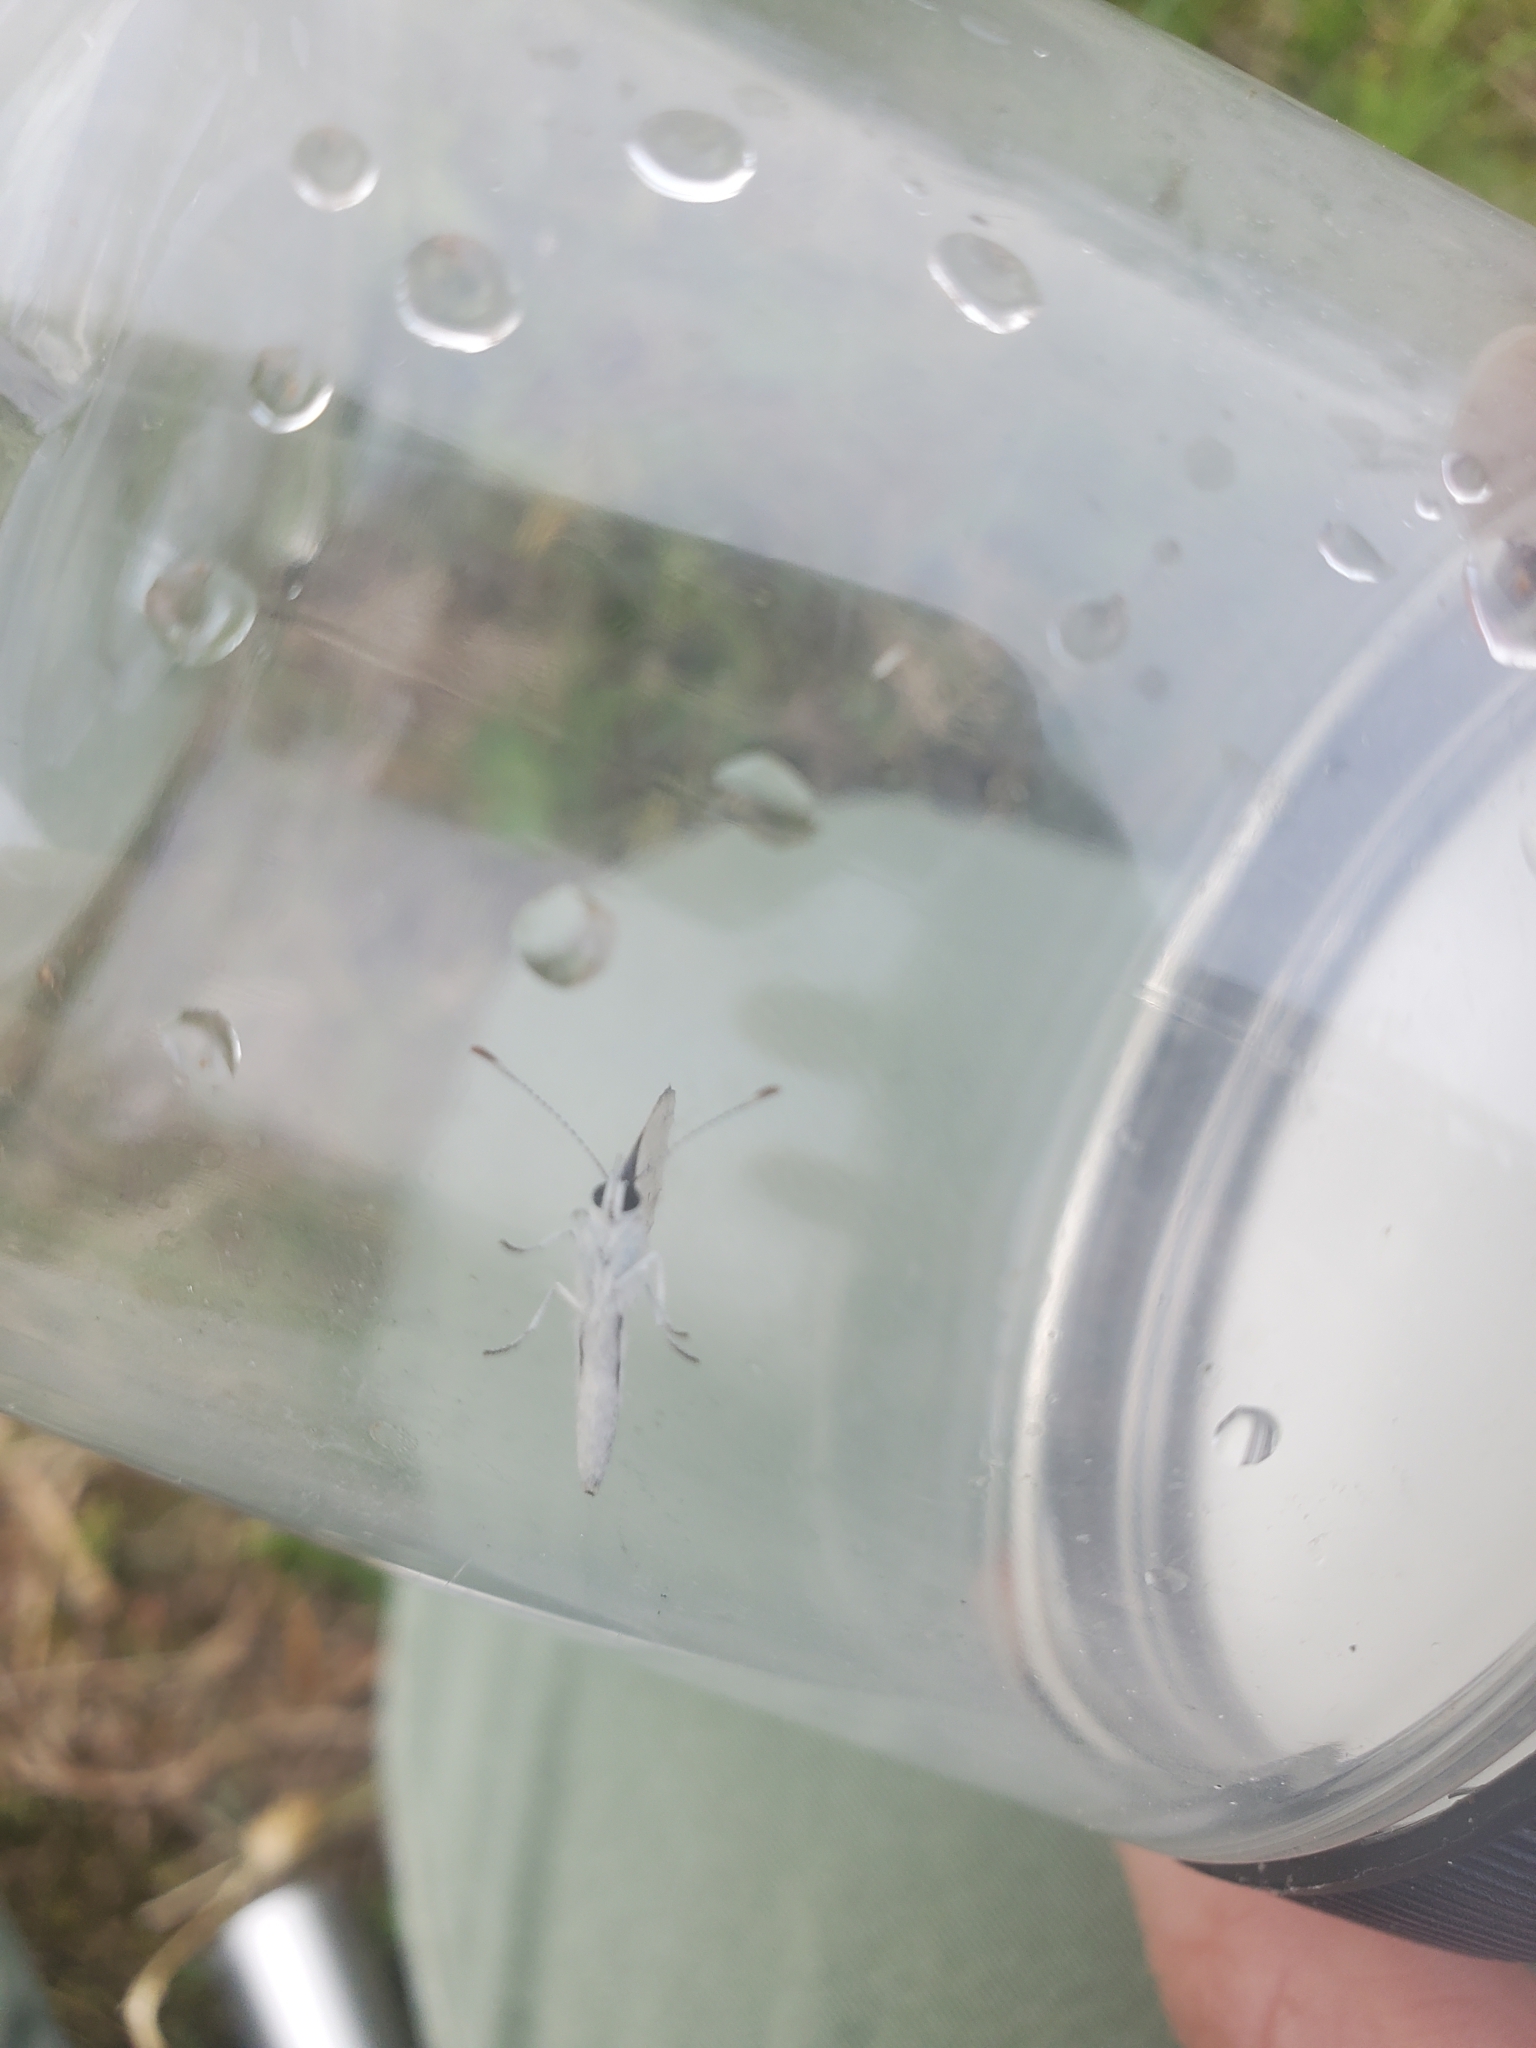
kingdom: Animalia
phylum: Arthropoda
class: Insecta
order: Lepidoptera
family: Lycaenidae
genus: Elkalyce
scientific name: Elkalyce comyntas
